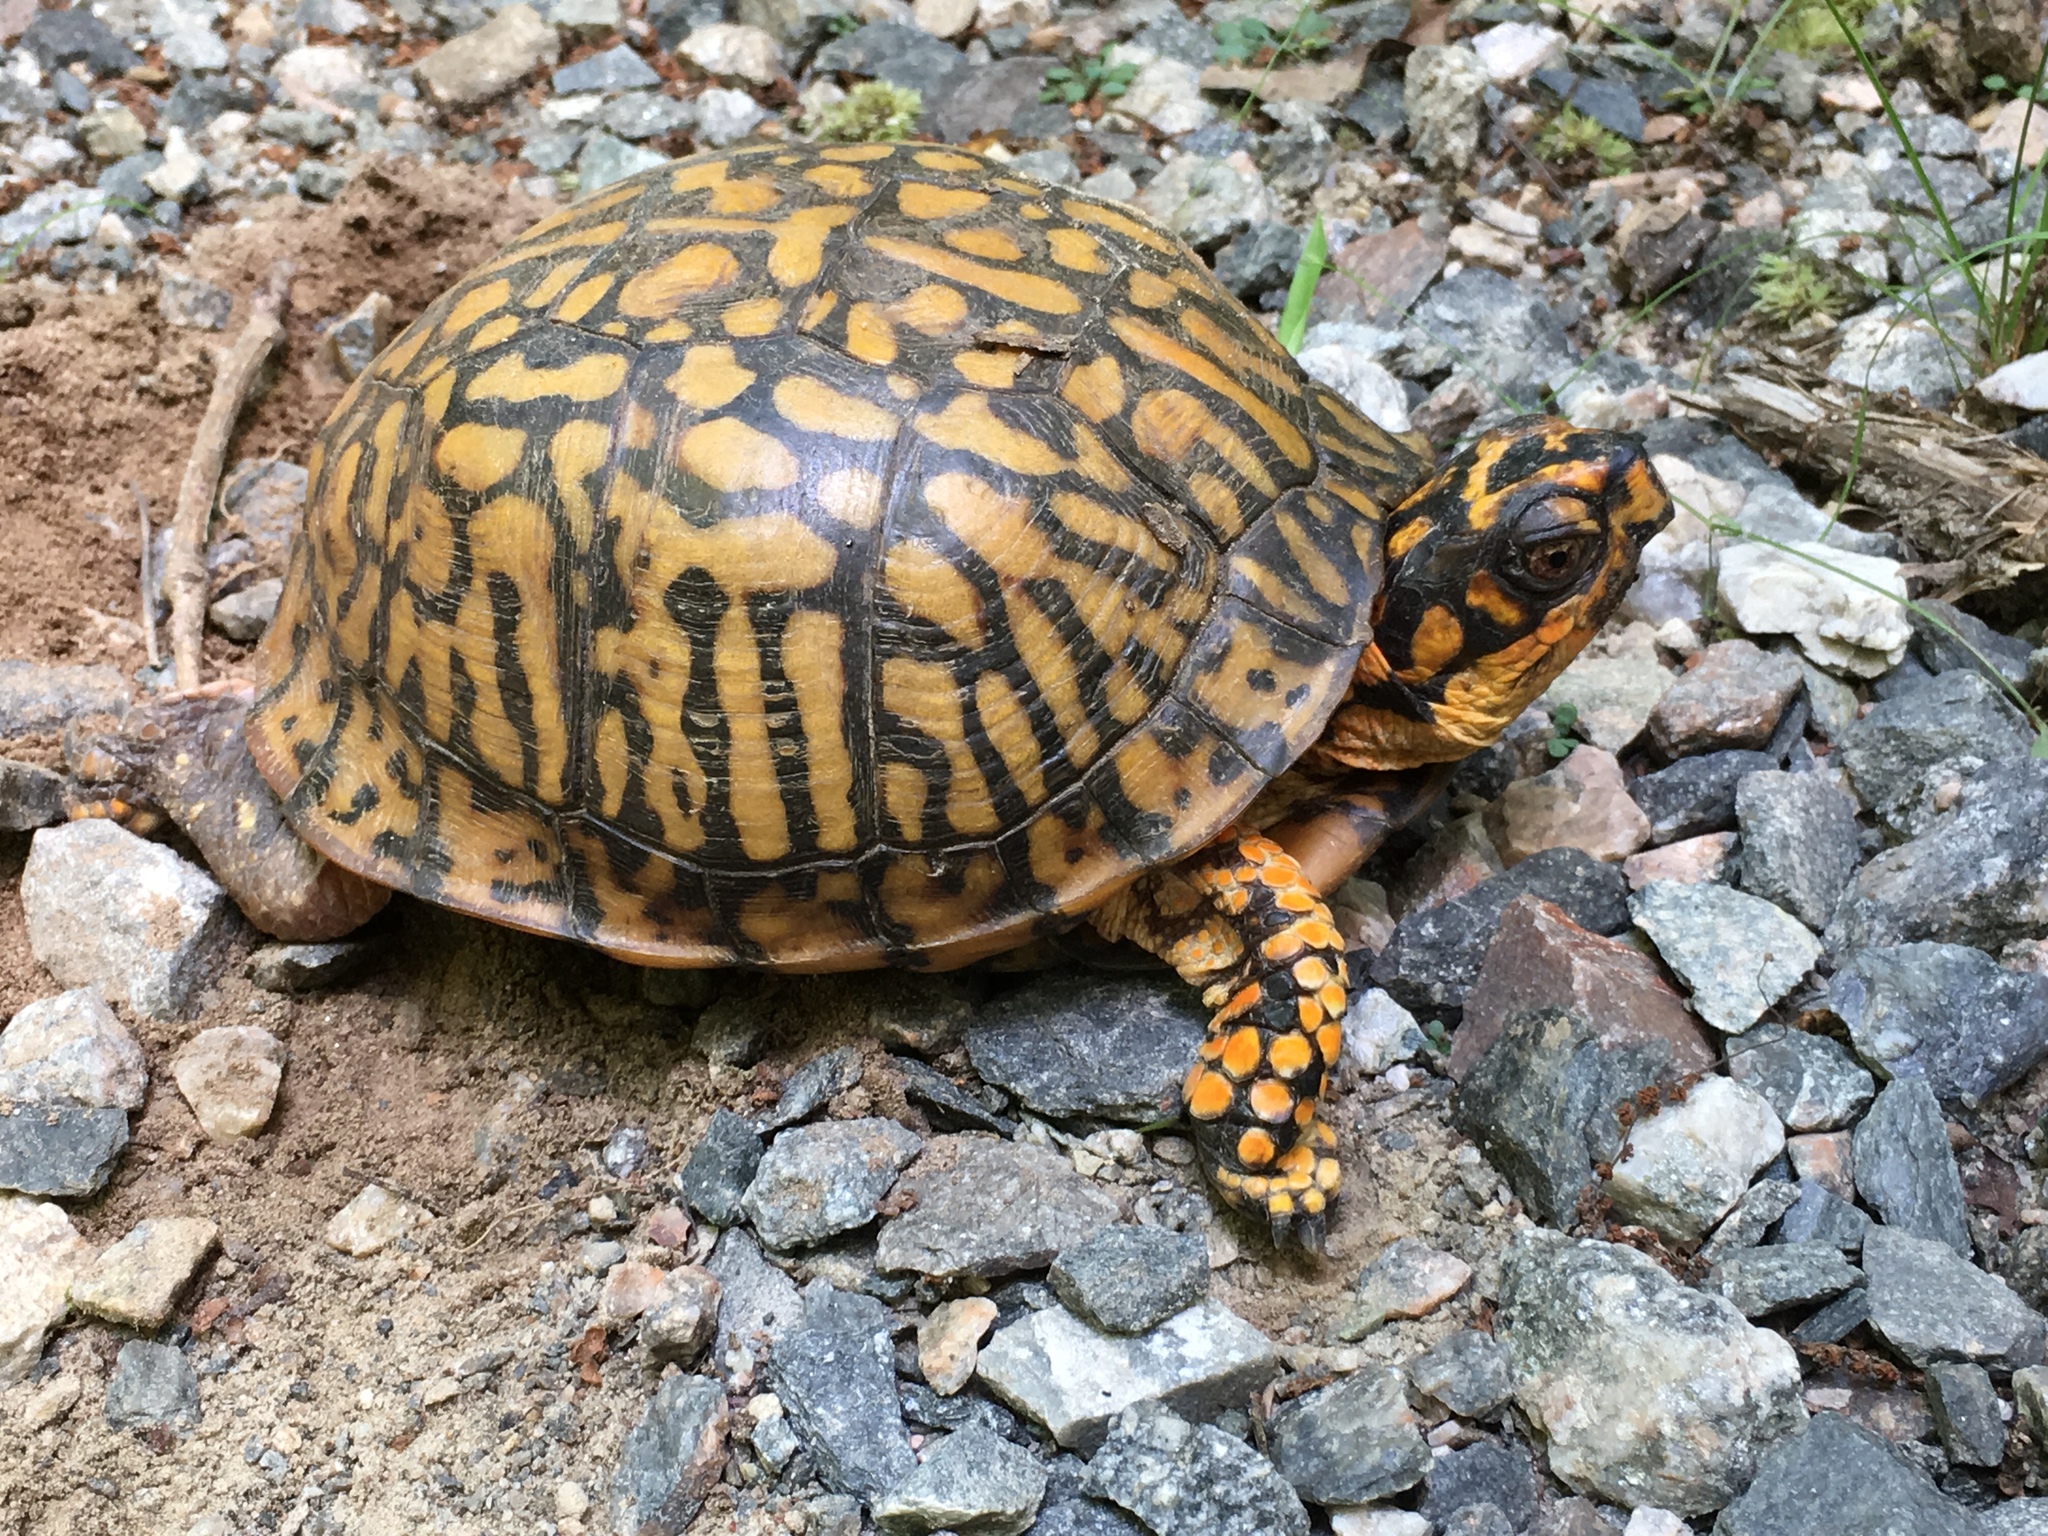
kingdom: Animalia
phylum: Chordata
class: Testudines
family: Emydidae
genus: Terrapene
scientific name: Terrapene carolina
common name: Common box turtle
